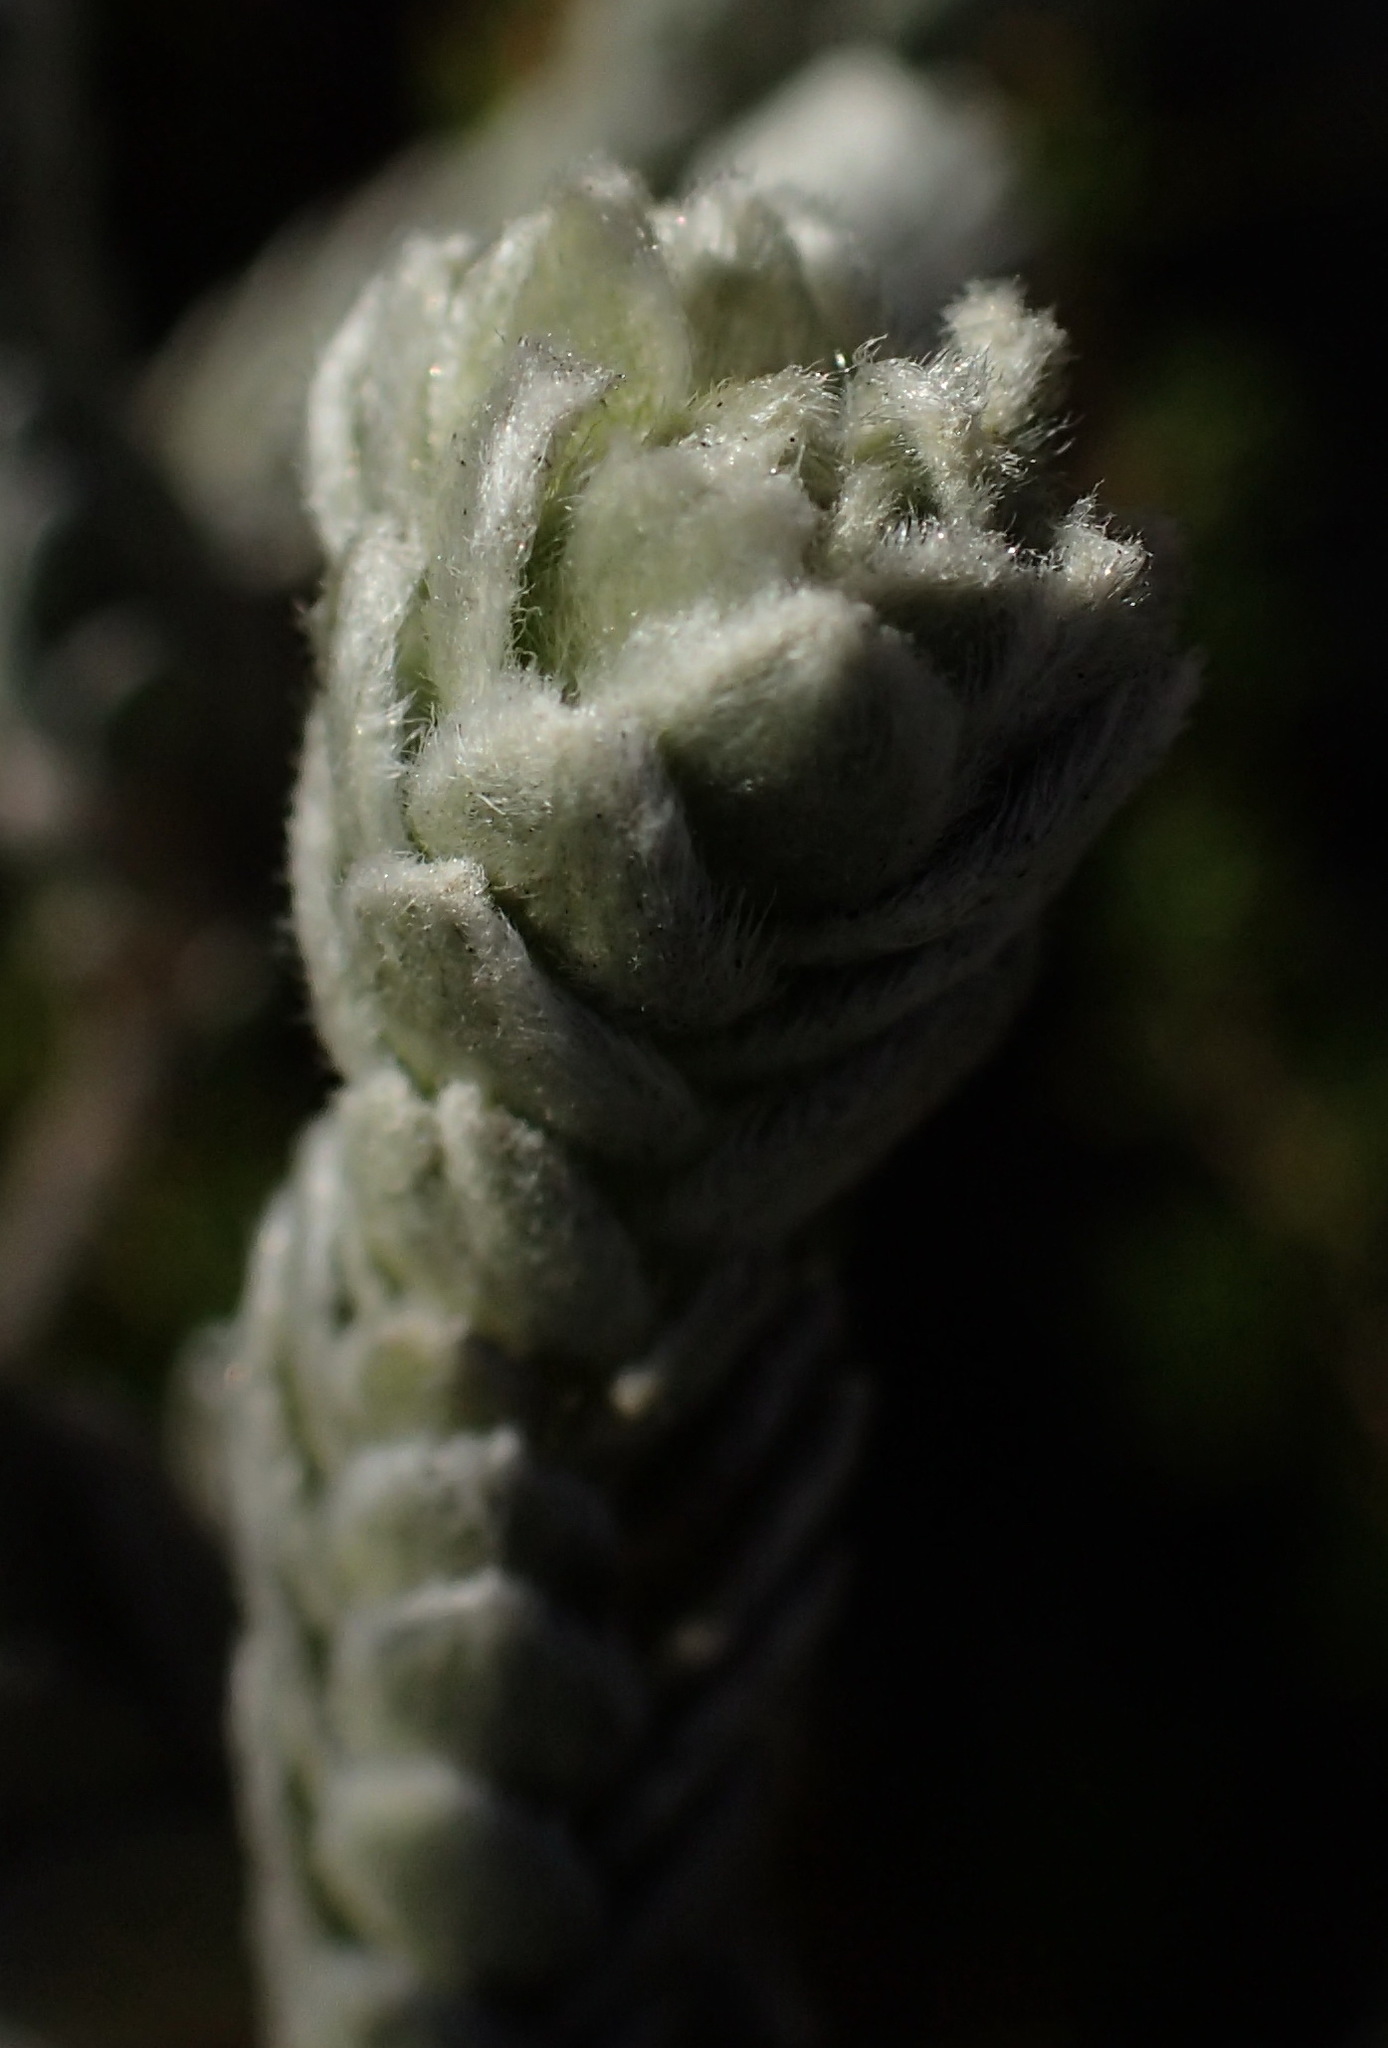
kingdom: Plantae
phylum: Tracheophyta
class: Magnoliopsida
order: Malvales
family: Thymelaeaceae
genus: Gnidia
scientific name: Gnidia imbricata
